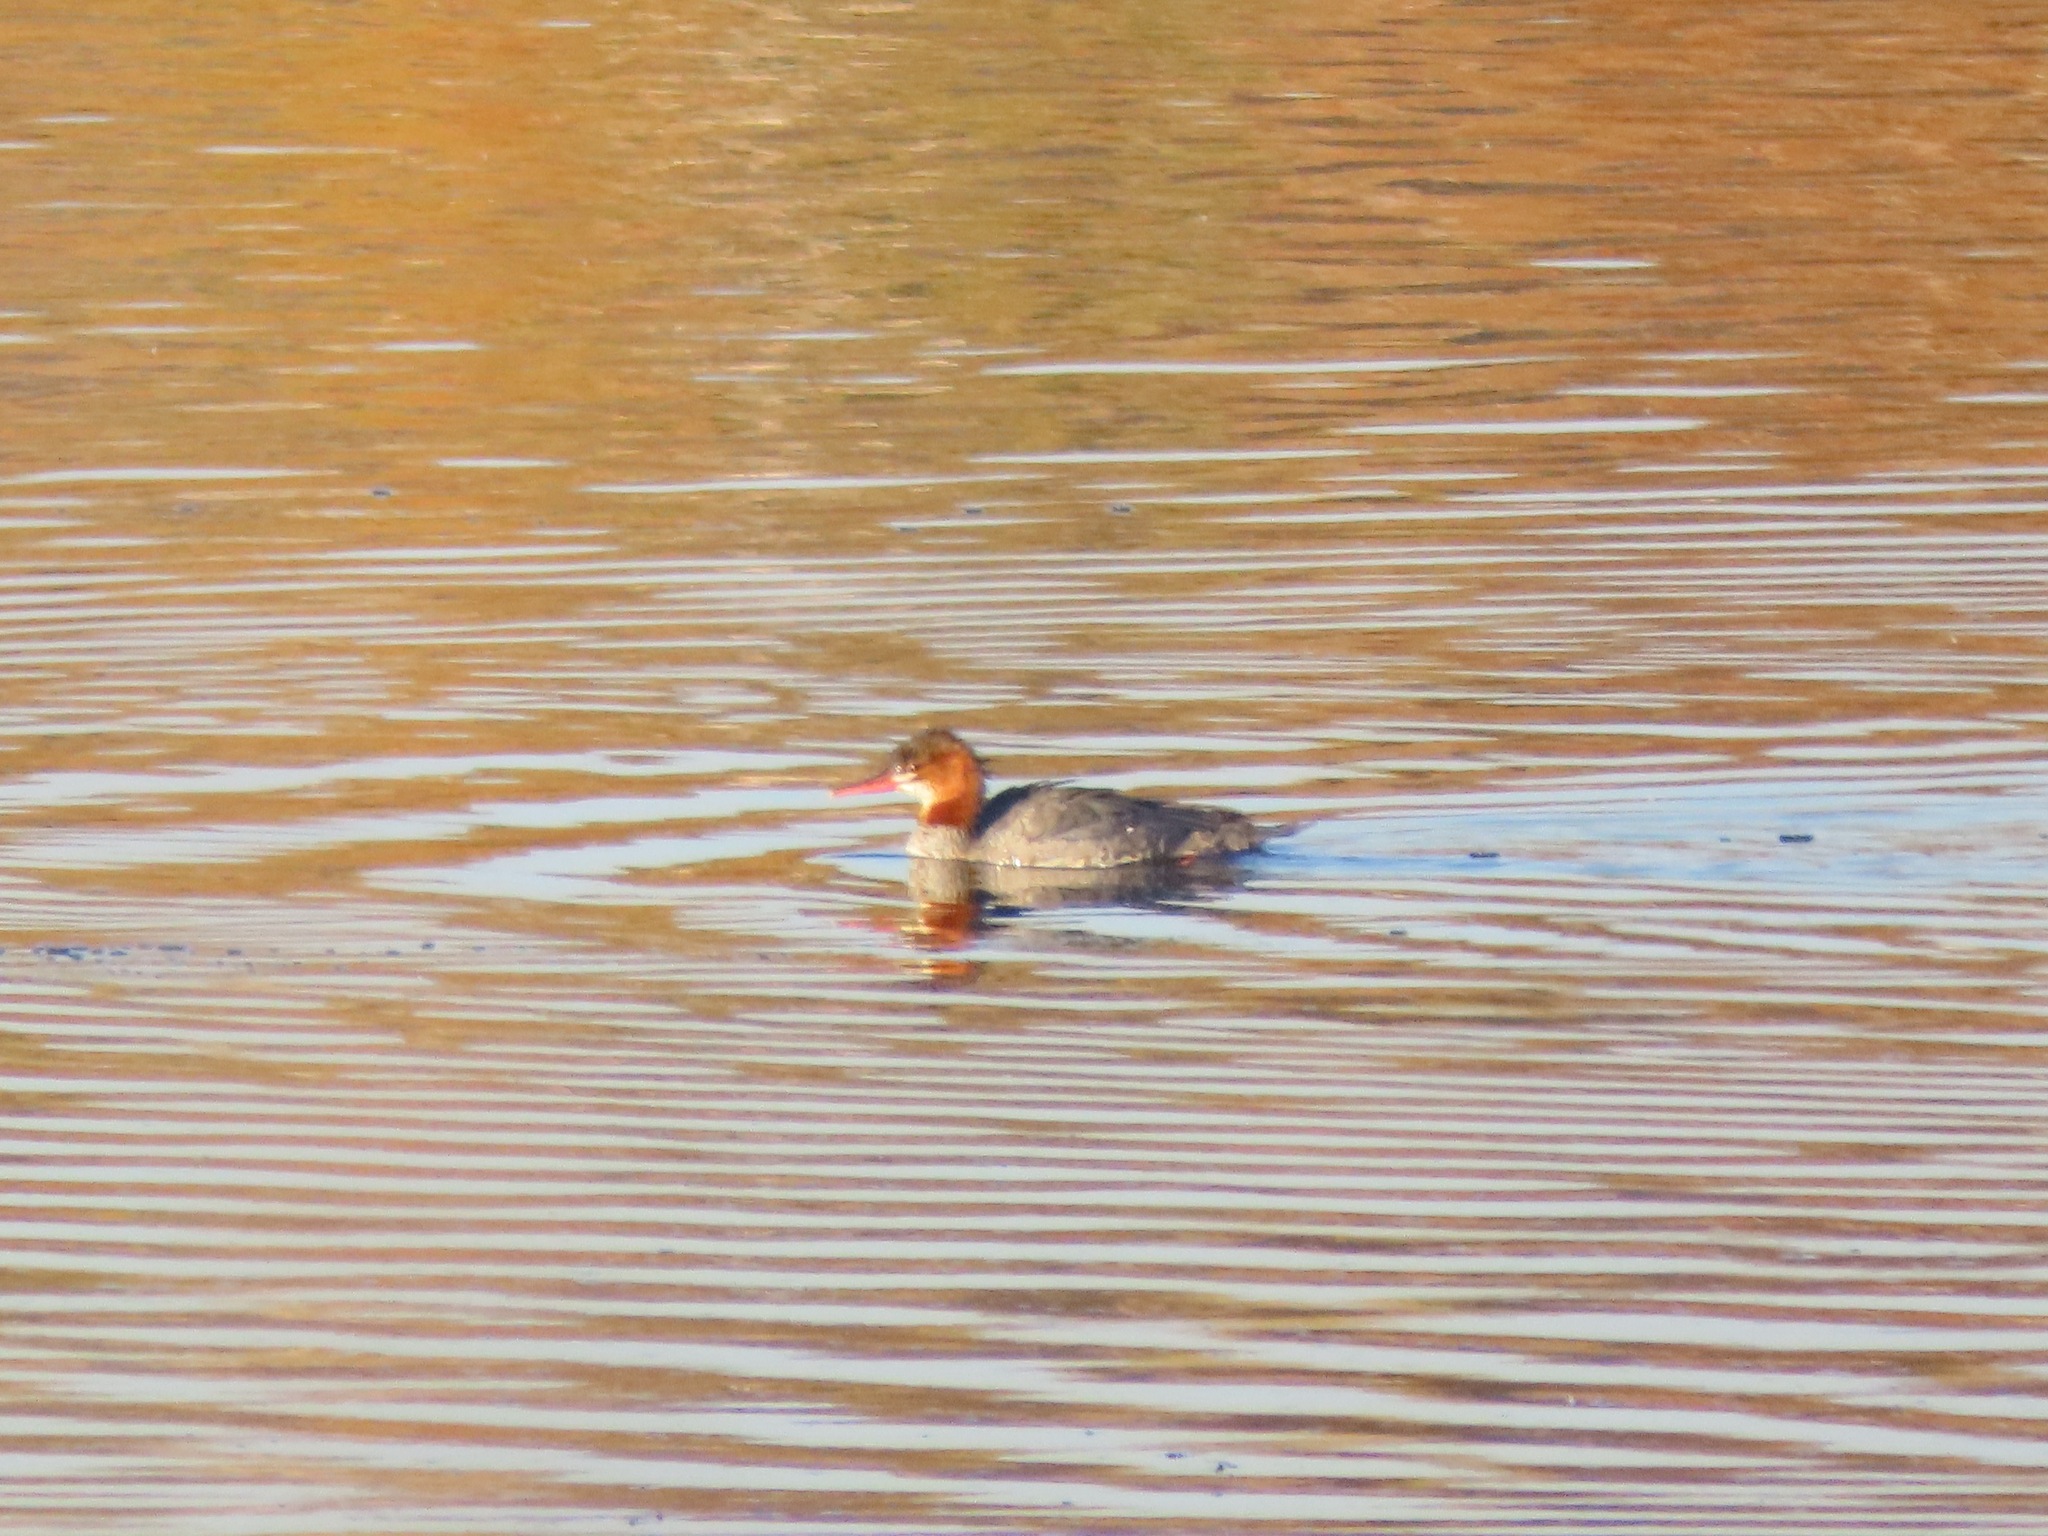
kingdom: Animalia
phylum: Chordata
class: Aves
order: Anseriformes
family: Anatidae
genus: Mergus
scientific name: Mergus merganser
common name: Common merganser
